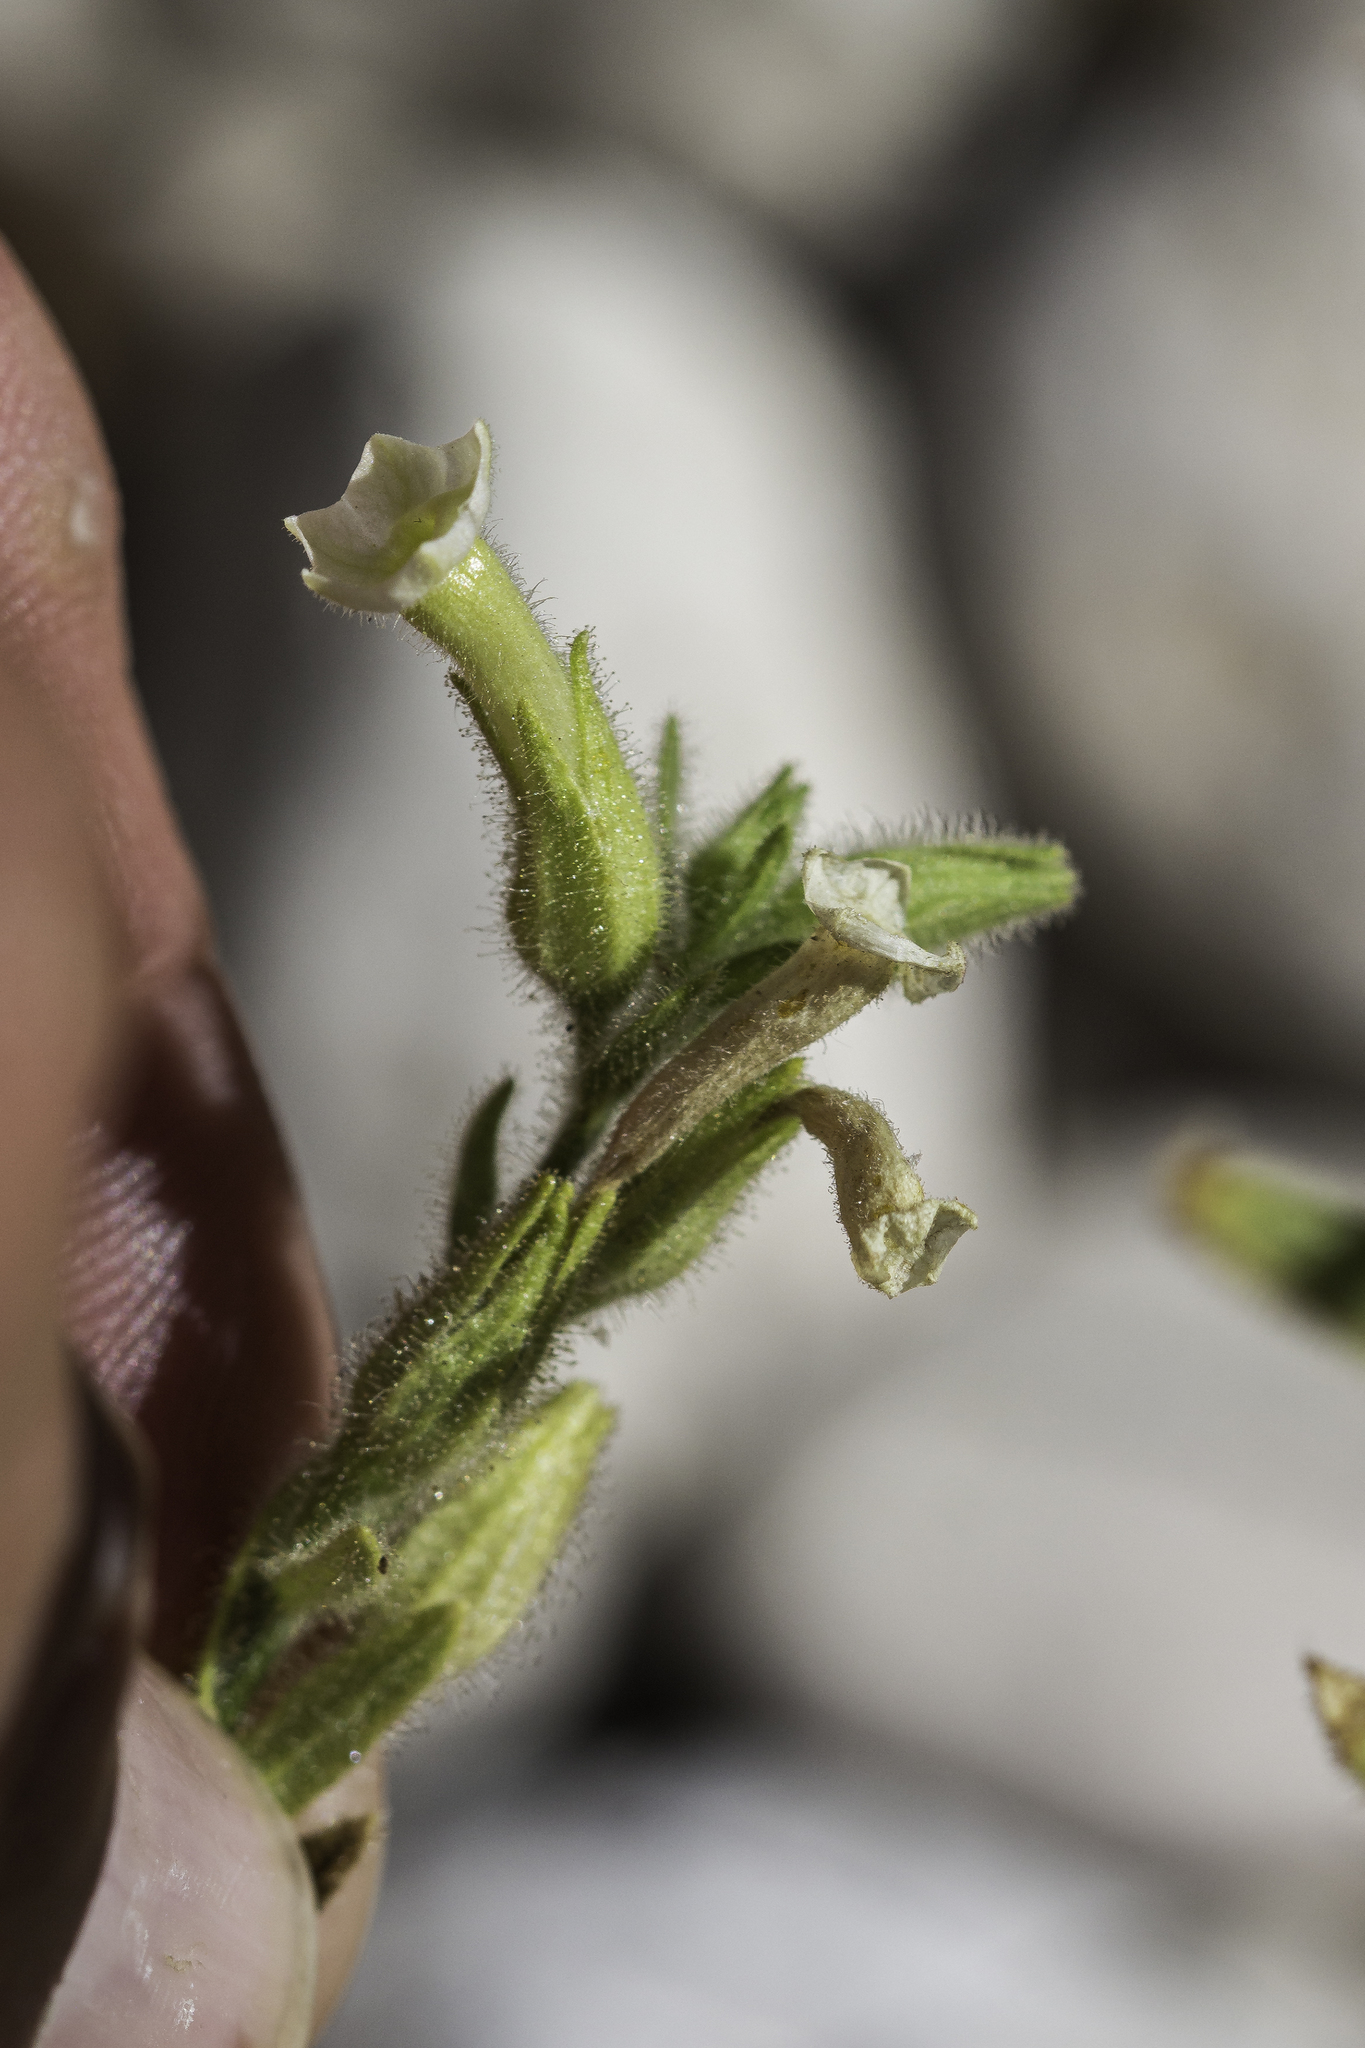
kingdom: Plantae
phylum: Tracheophyta
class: Magnoliopsida
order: Solanales
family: Solanaceae
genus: Nicotiana
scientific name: Nicotiana obtusifolia
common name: Desert tobacco
